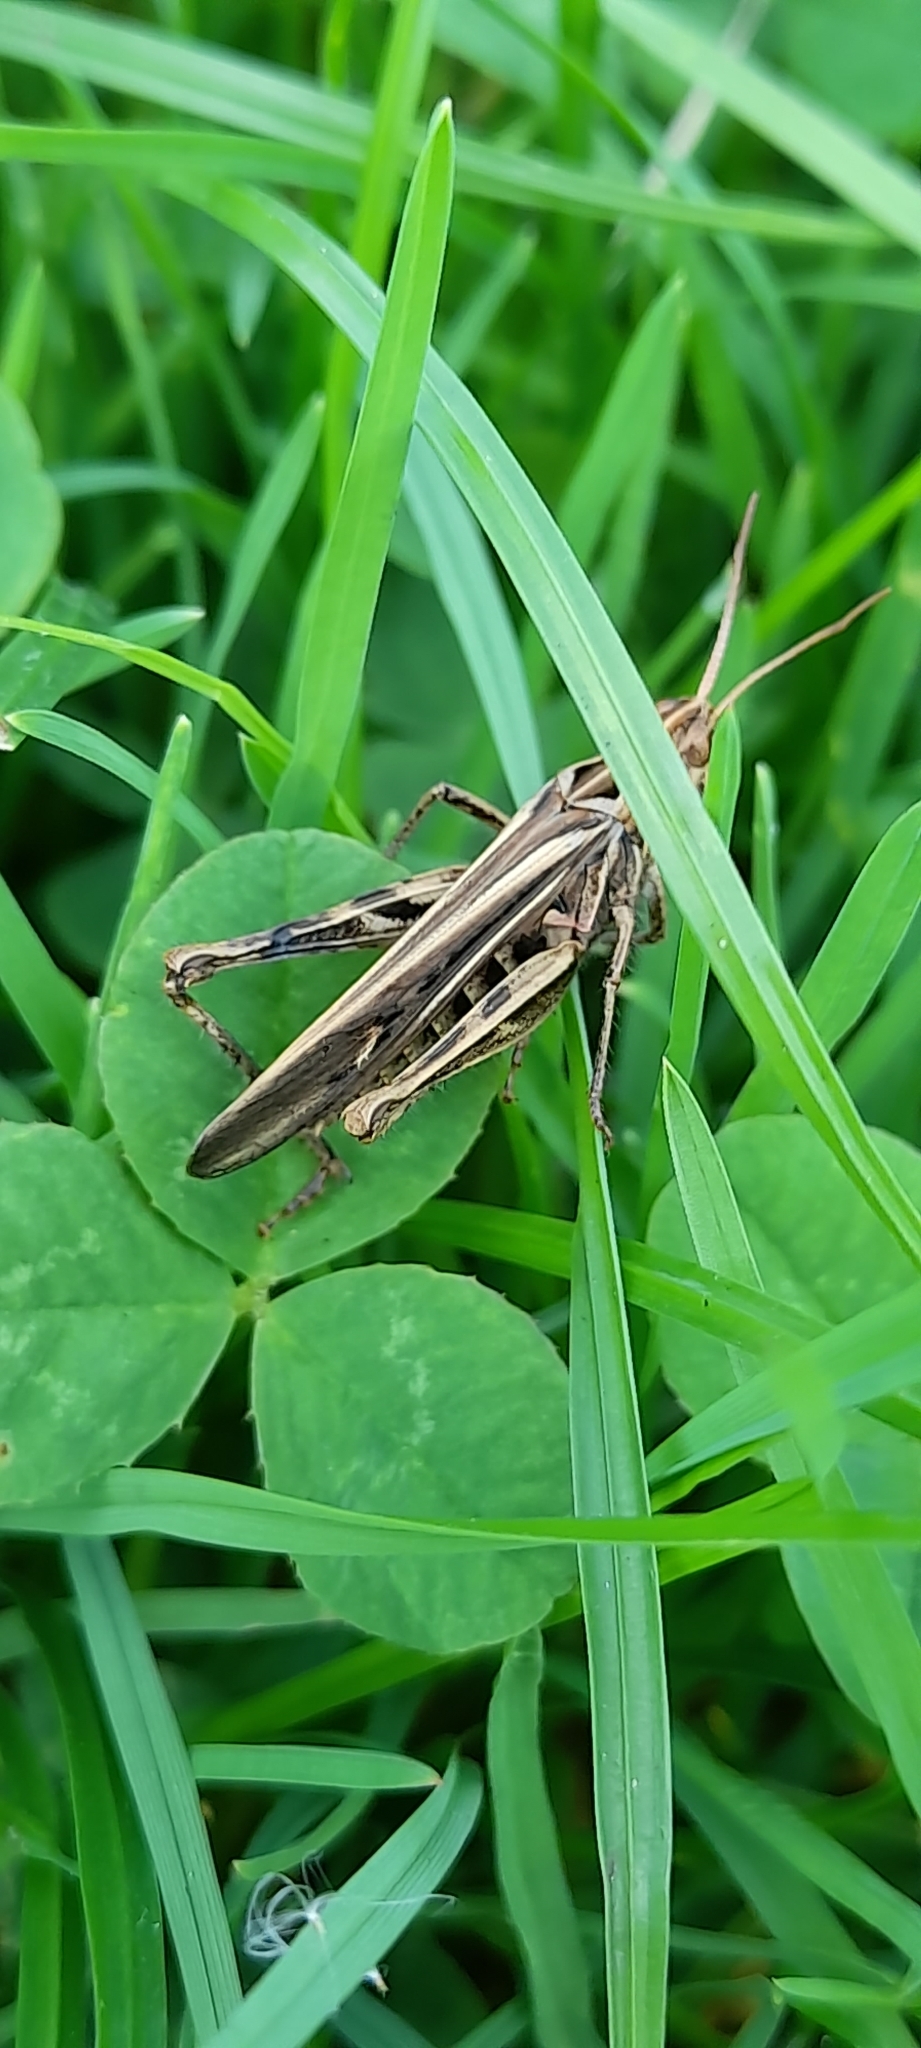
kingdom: Animalia
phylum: Arthropoda
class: Insecta
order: Orthoptera
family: Acrididae
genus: Chorthippus
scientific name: Chorthippus brunneus
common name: Field grasshopper
